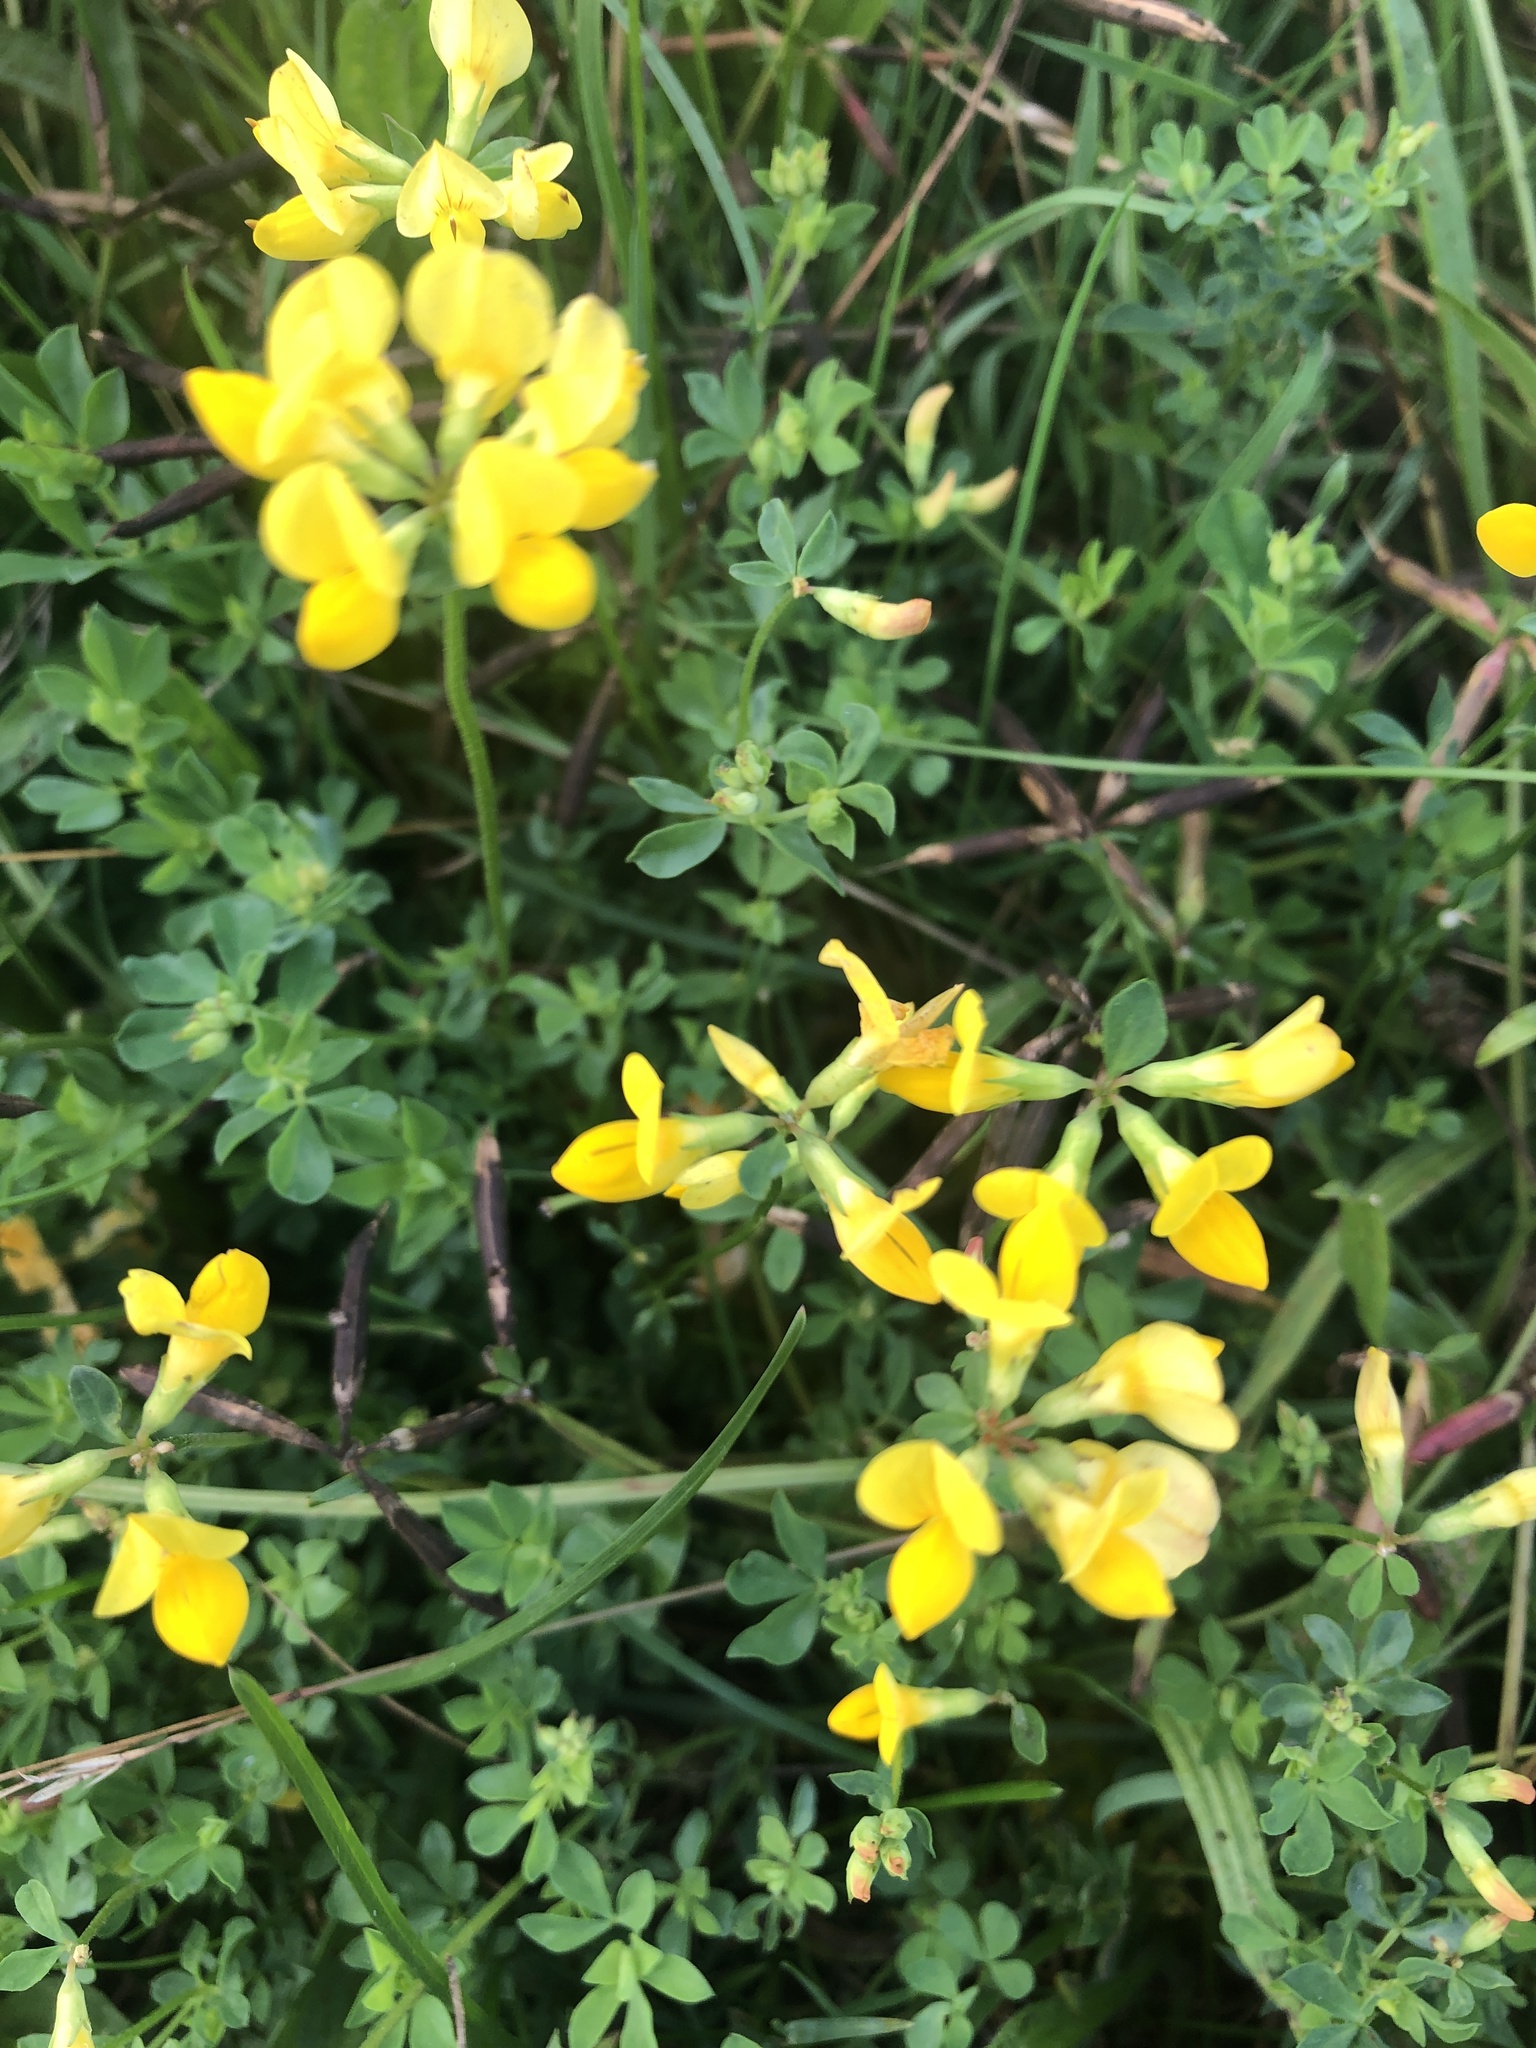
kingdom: Plantae
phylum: Tracheophyta
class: Magnoliopsida
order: Fabales
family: Fabaceae
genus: Lotus
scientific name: Lotus corniculatus
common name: Common bird's-foot-trefoil
